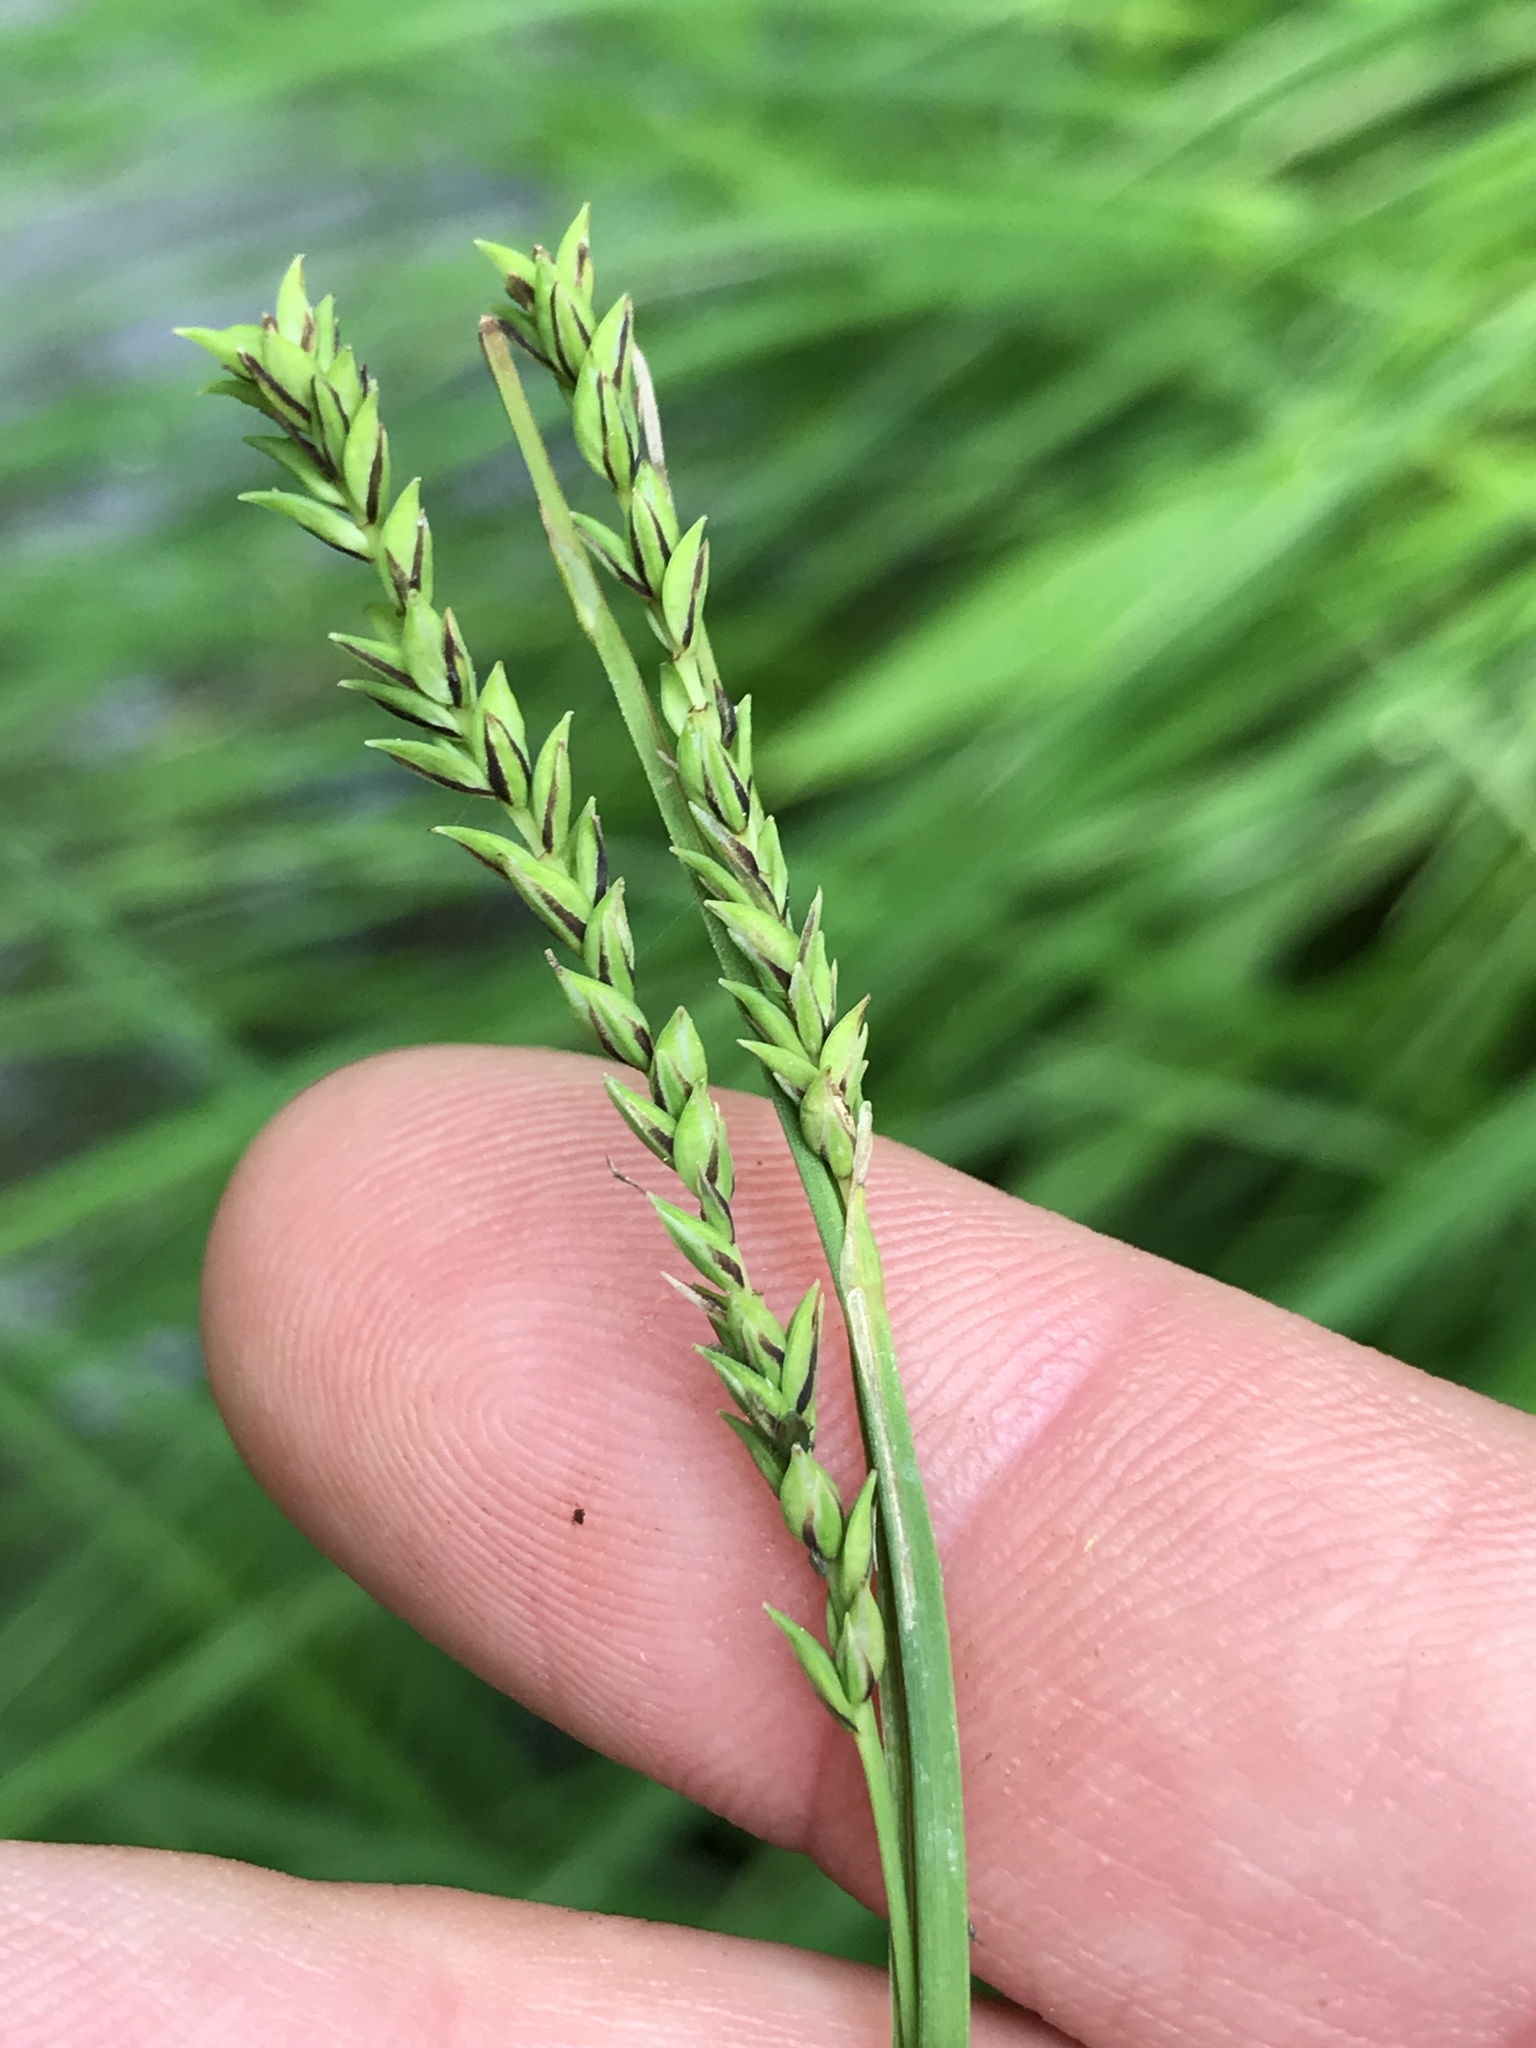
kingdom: Plantae
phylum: Tracheophyta
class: Liliopsida
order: Poales
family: Cyperaceae
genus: Carex
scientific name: Carex torta
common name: Twisted sedge
